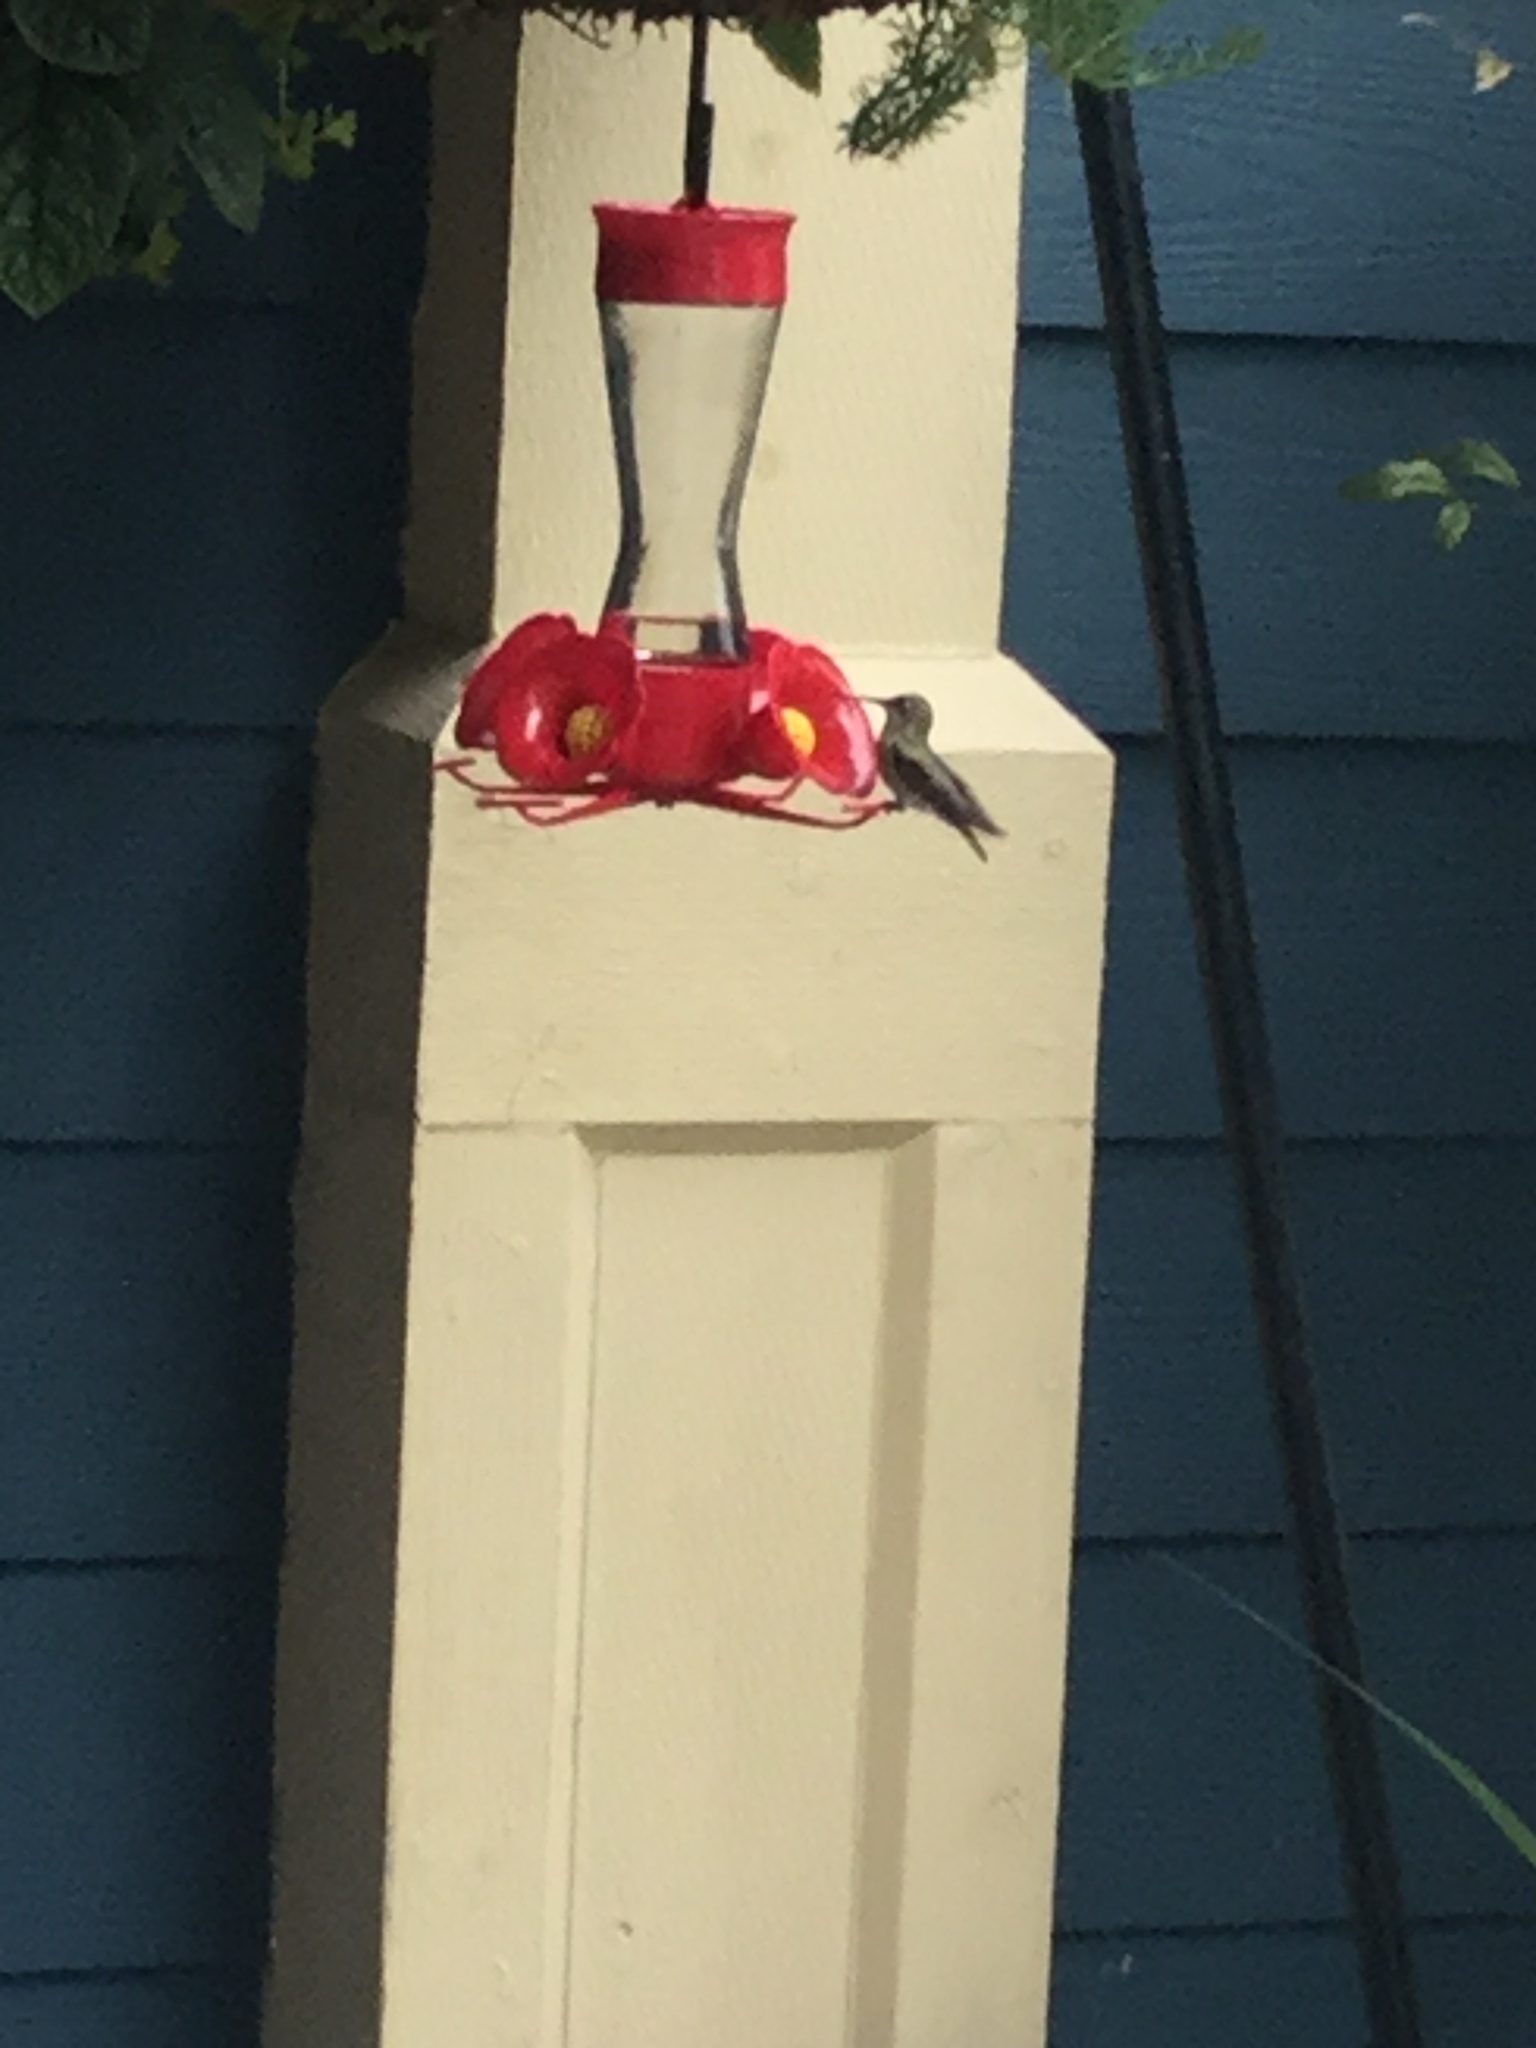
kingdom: Animalia
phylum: Chordata
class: Aves
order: Apodiformes
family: Trochilidae
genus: Calypte
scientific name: Calypte anna
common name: Anna's hummingbird
